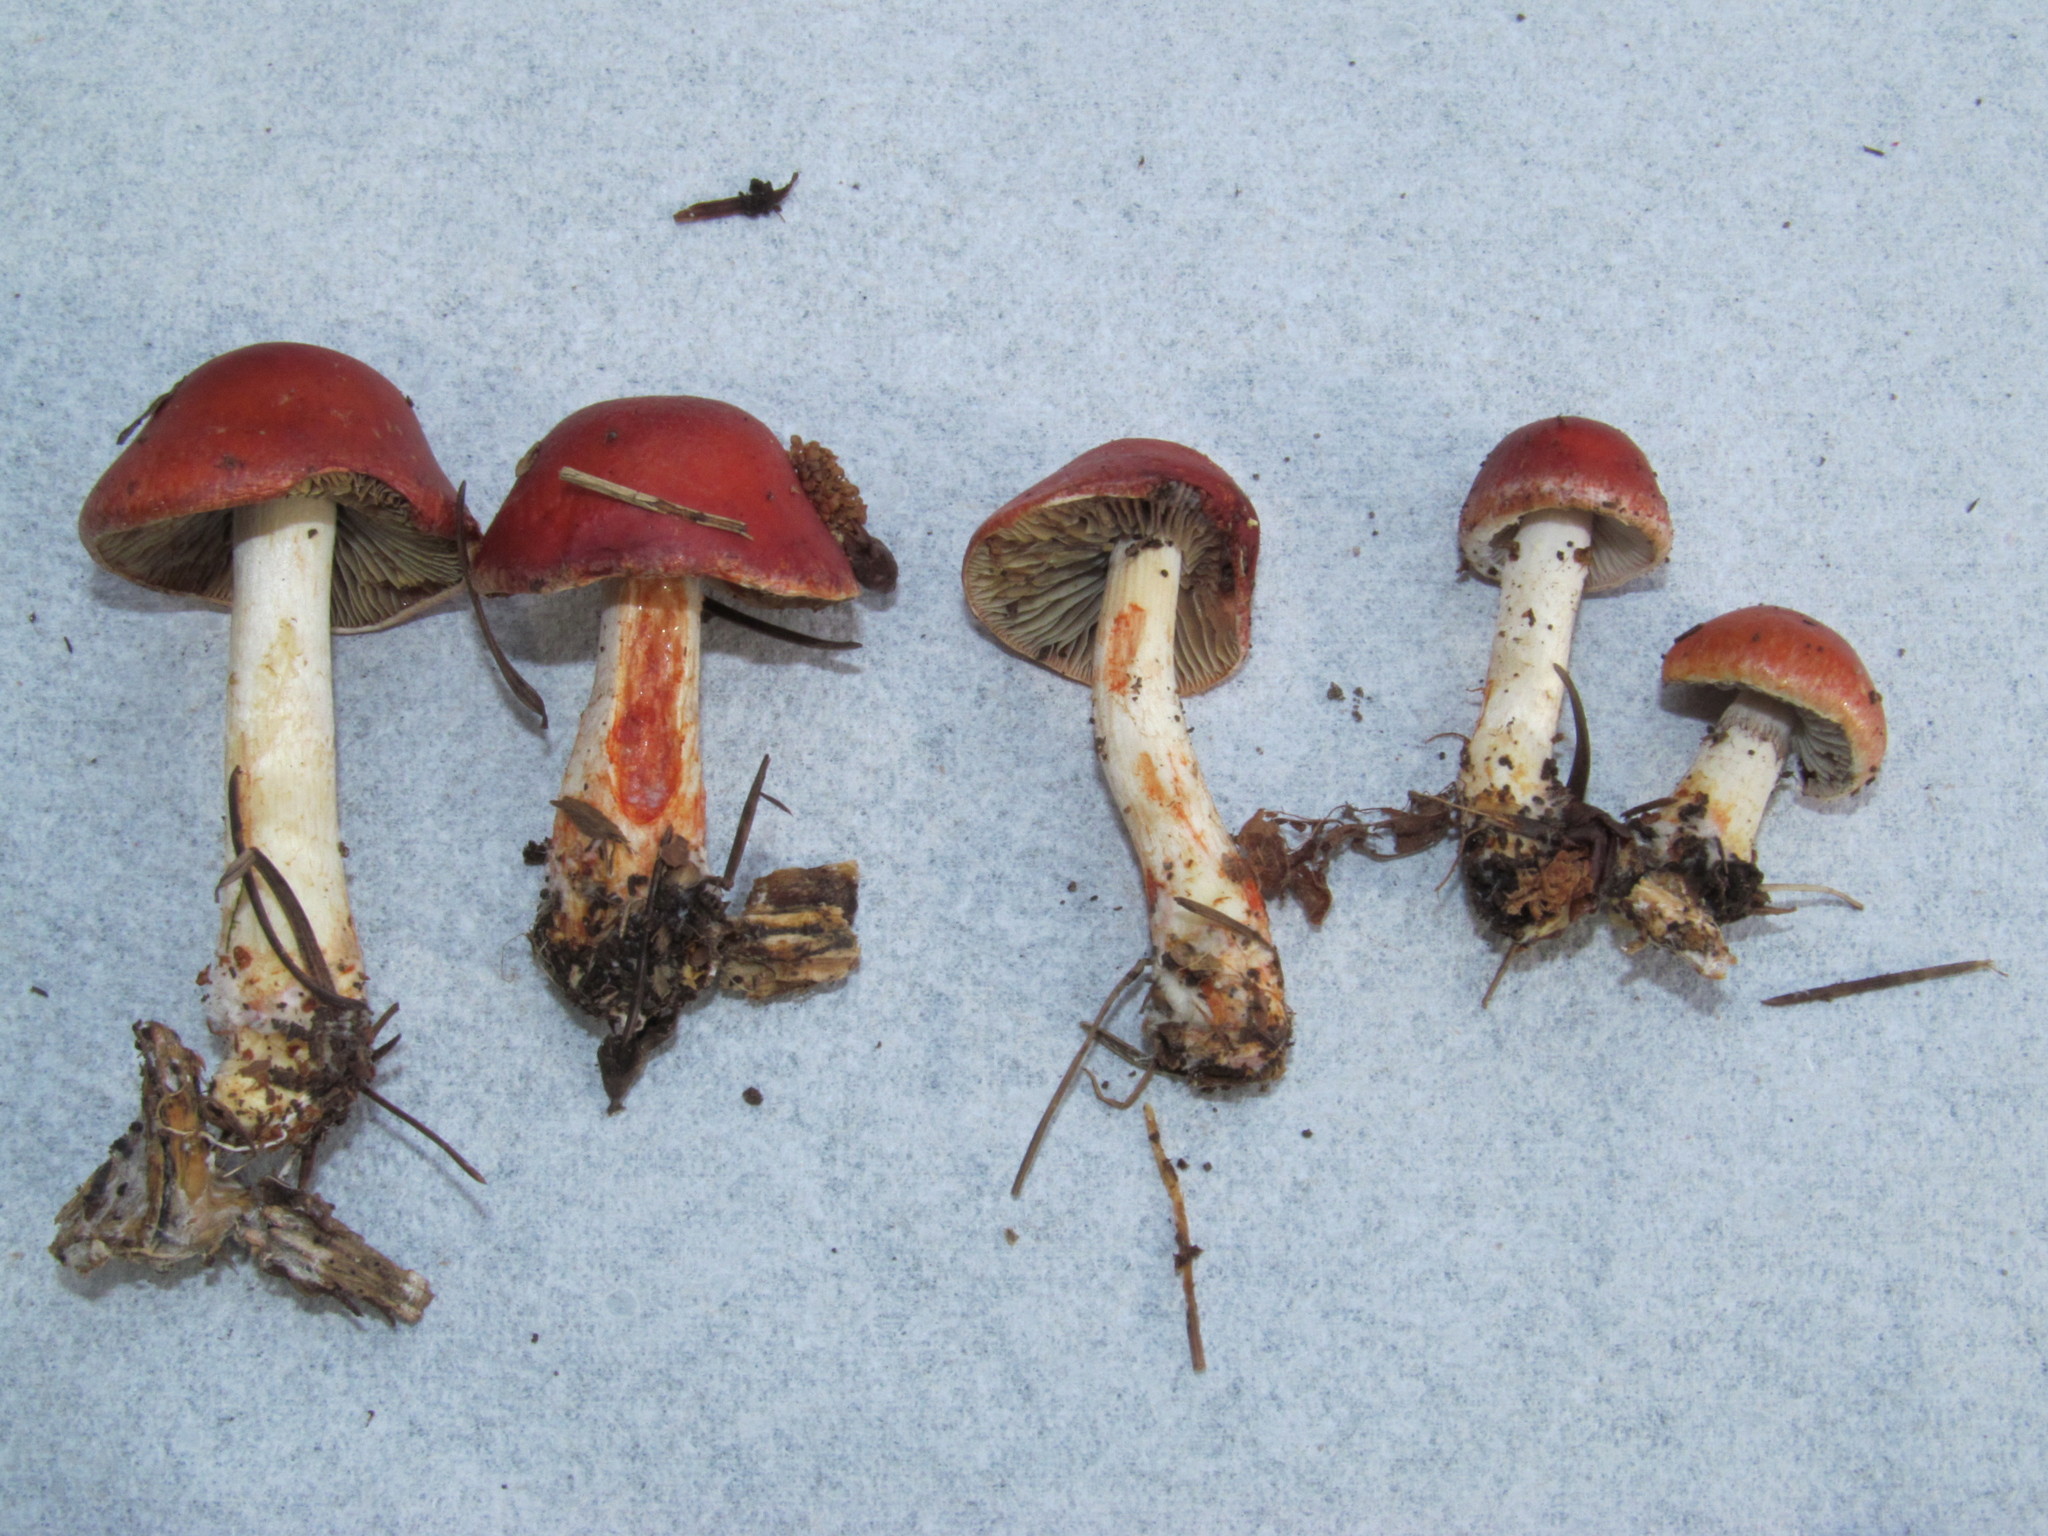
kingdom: Fungi
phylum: Basidiomycota
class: Agaricomycetes
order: Agaricales
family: Strophariaceae
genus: Leratiomyces
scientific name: Leratiomyces ceres
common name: Redlead roundhead
